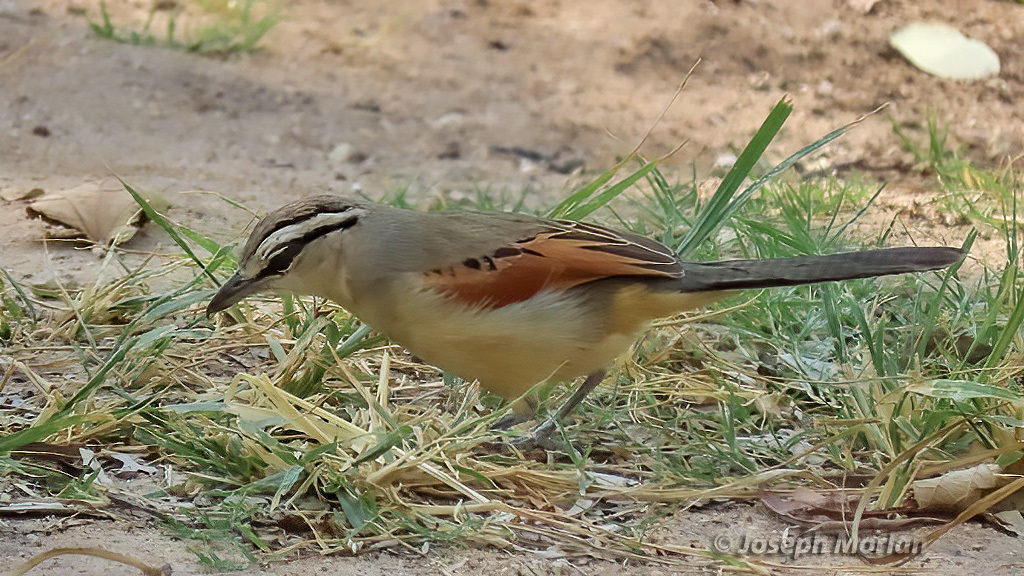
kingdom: Animalia
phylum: Chordata
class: Aves
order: Passeriformes
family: Malaconotidae
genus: Tchagra
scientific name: Tchagra australis
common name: Brown-crowned tchagra
